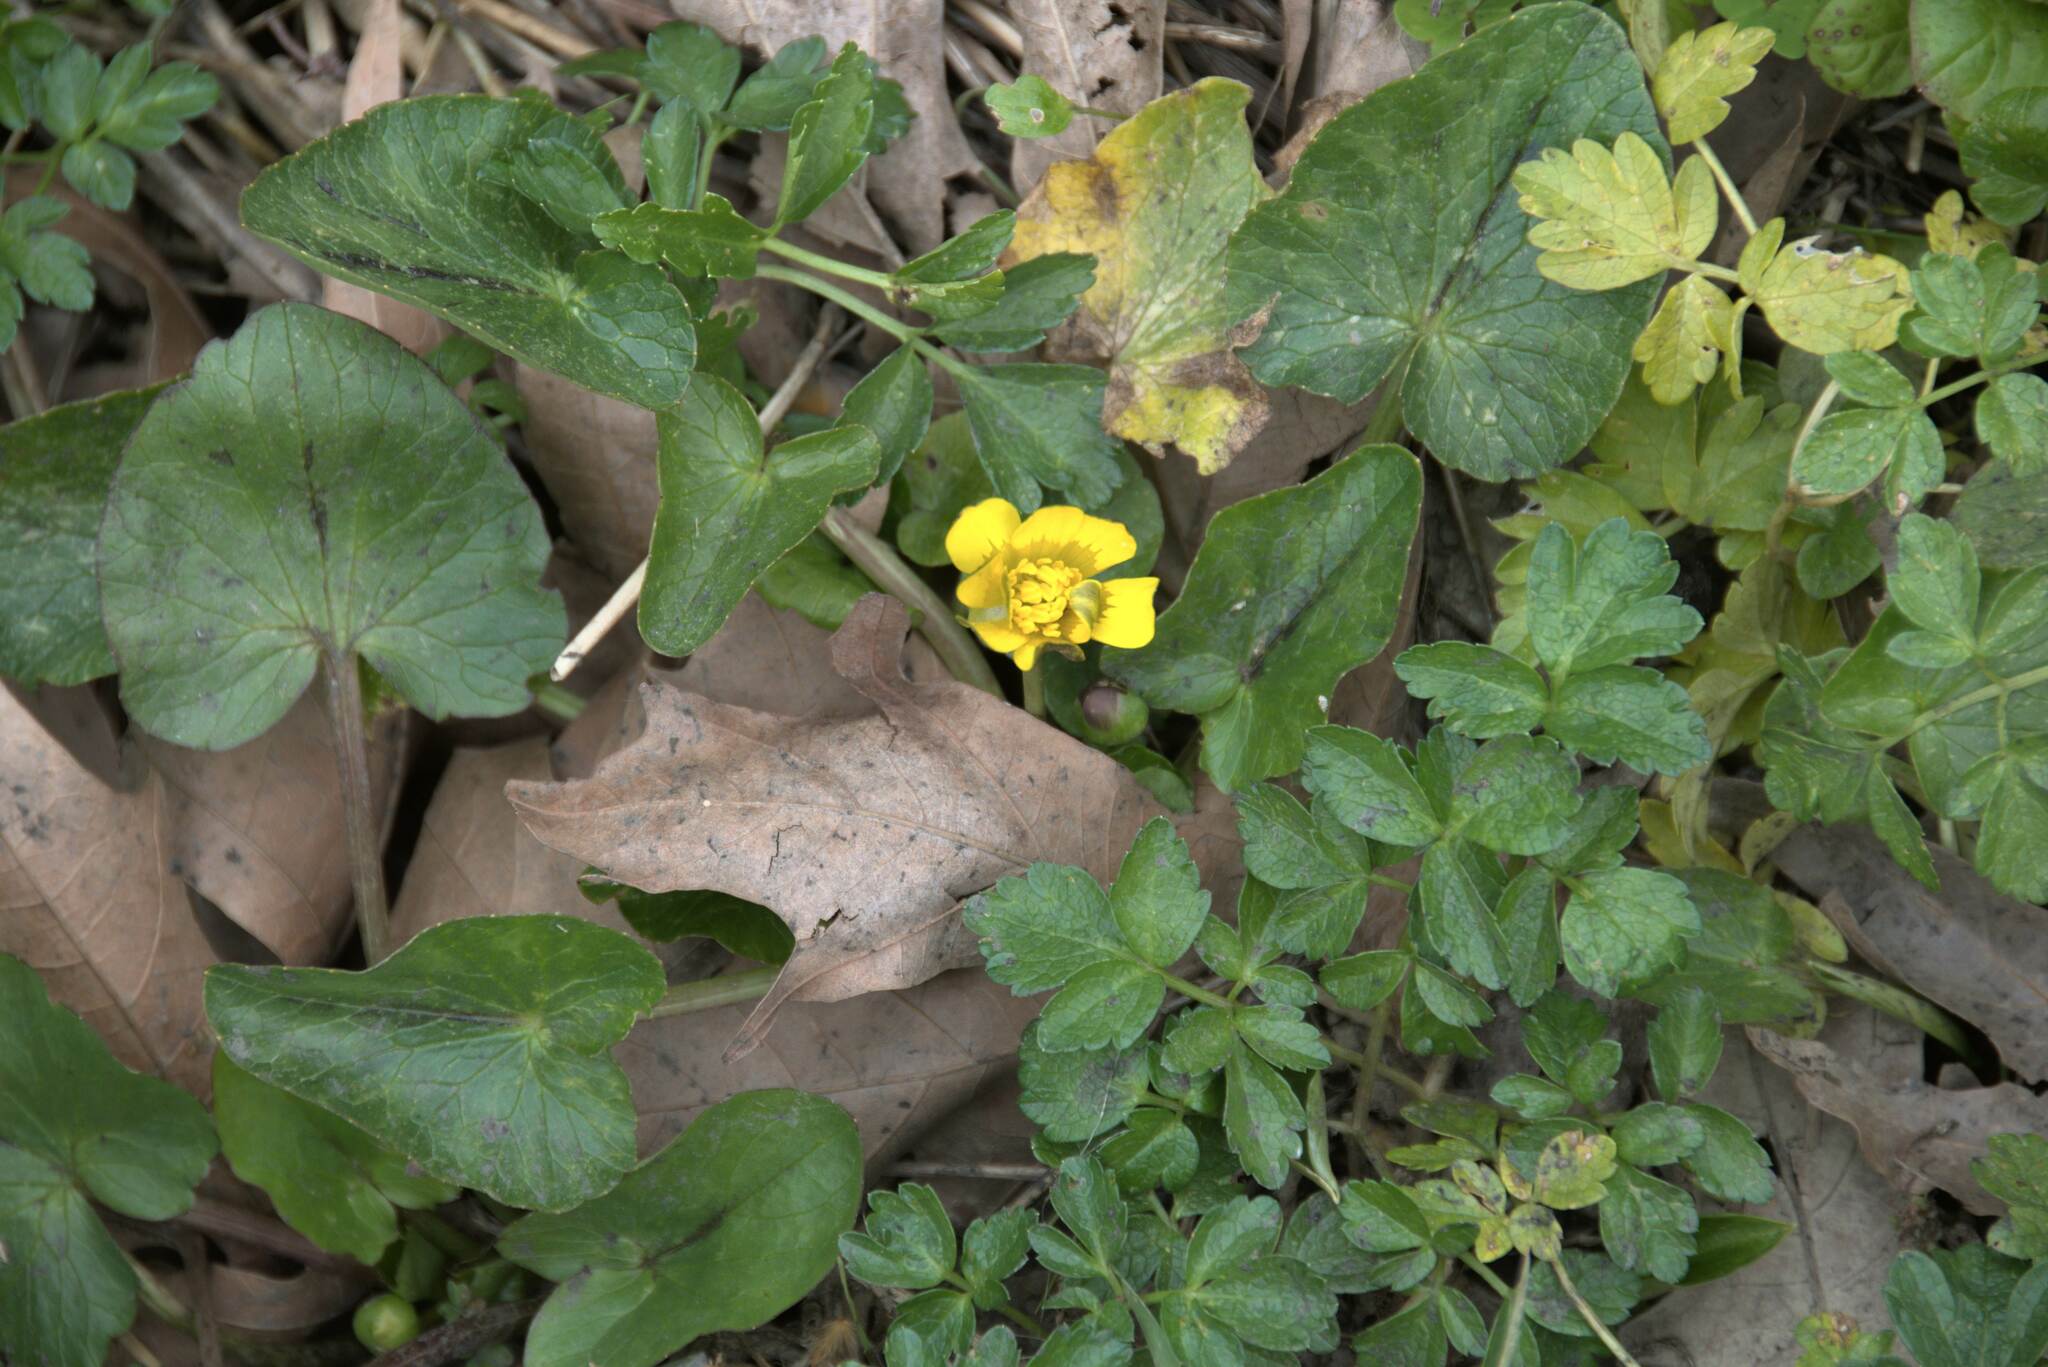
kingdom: Plantae
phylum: Tracheophyta
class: Magnoliopsida
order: Ranunculales
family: Ranunculaceae
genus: Ficaria
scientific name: Ficaria verna
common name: Lesser celandine
